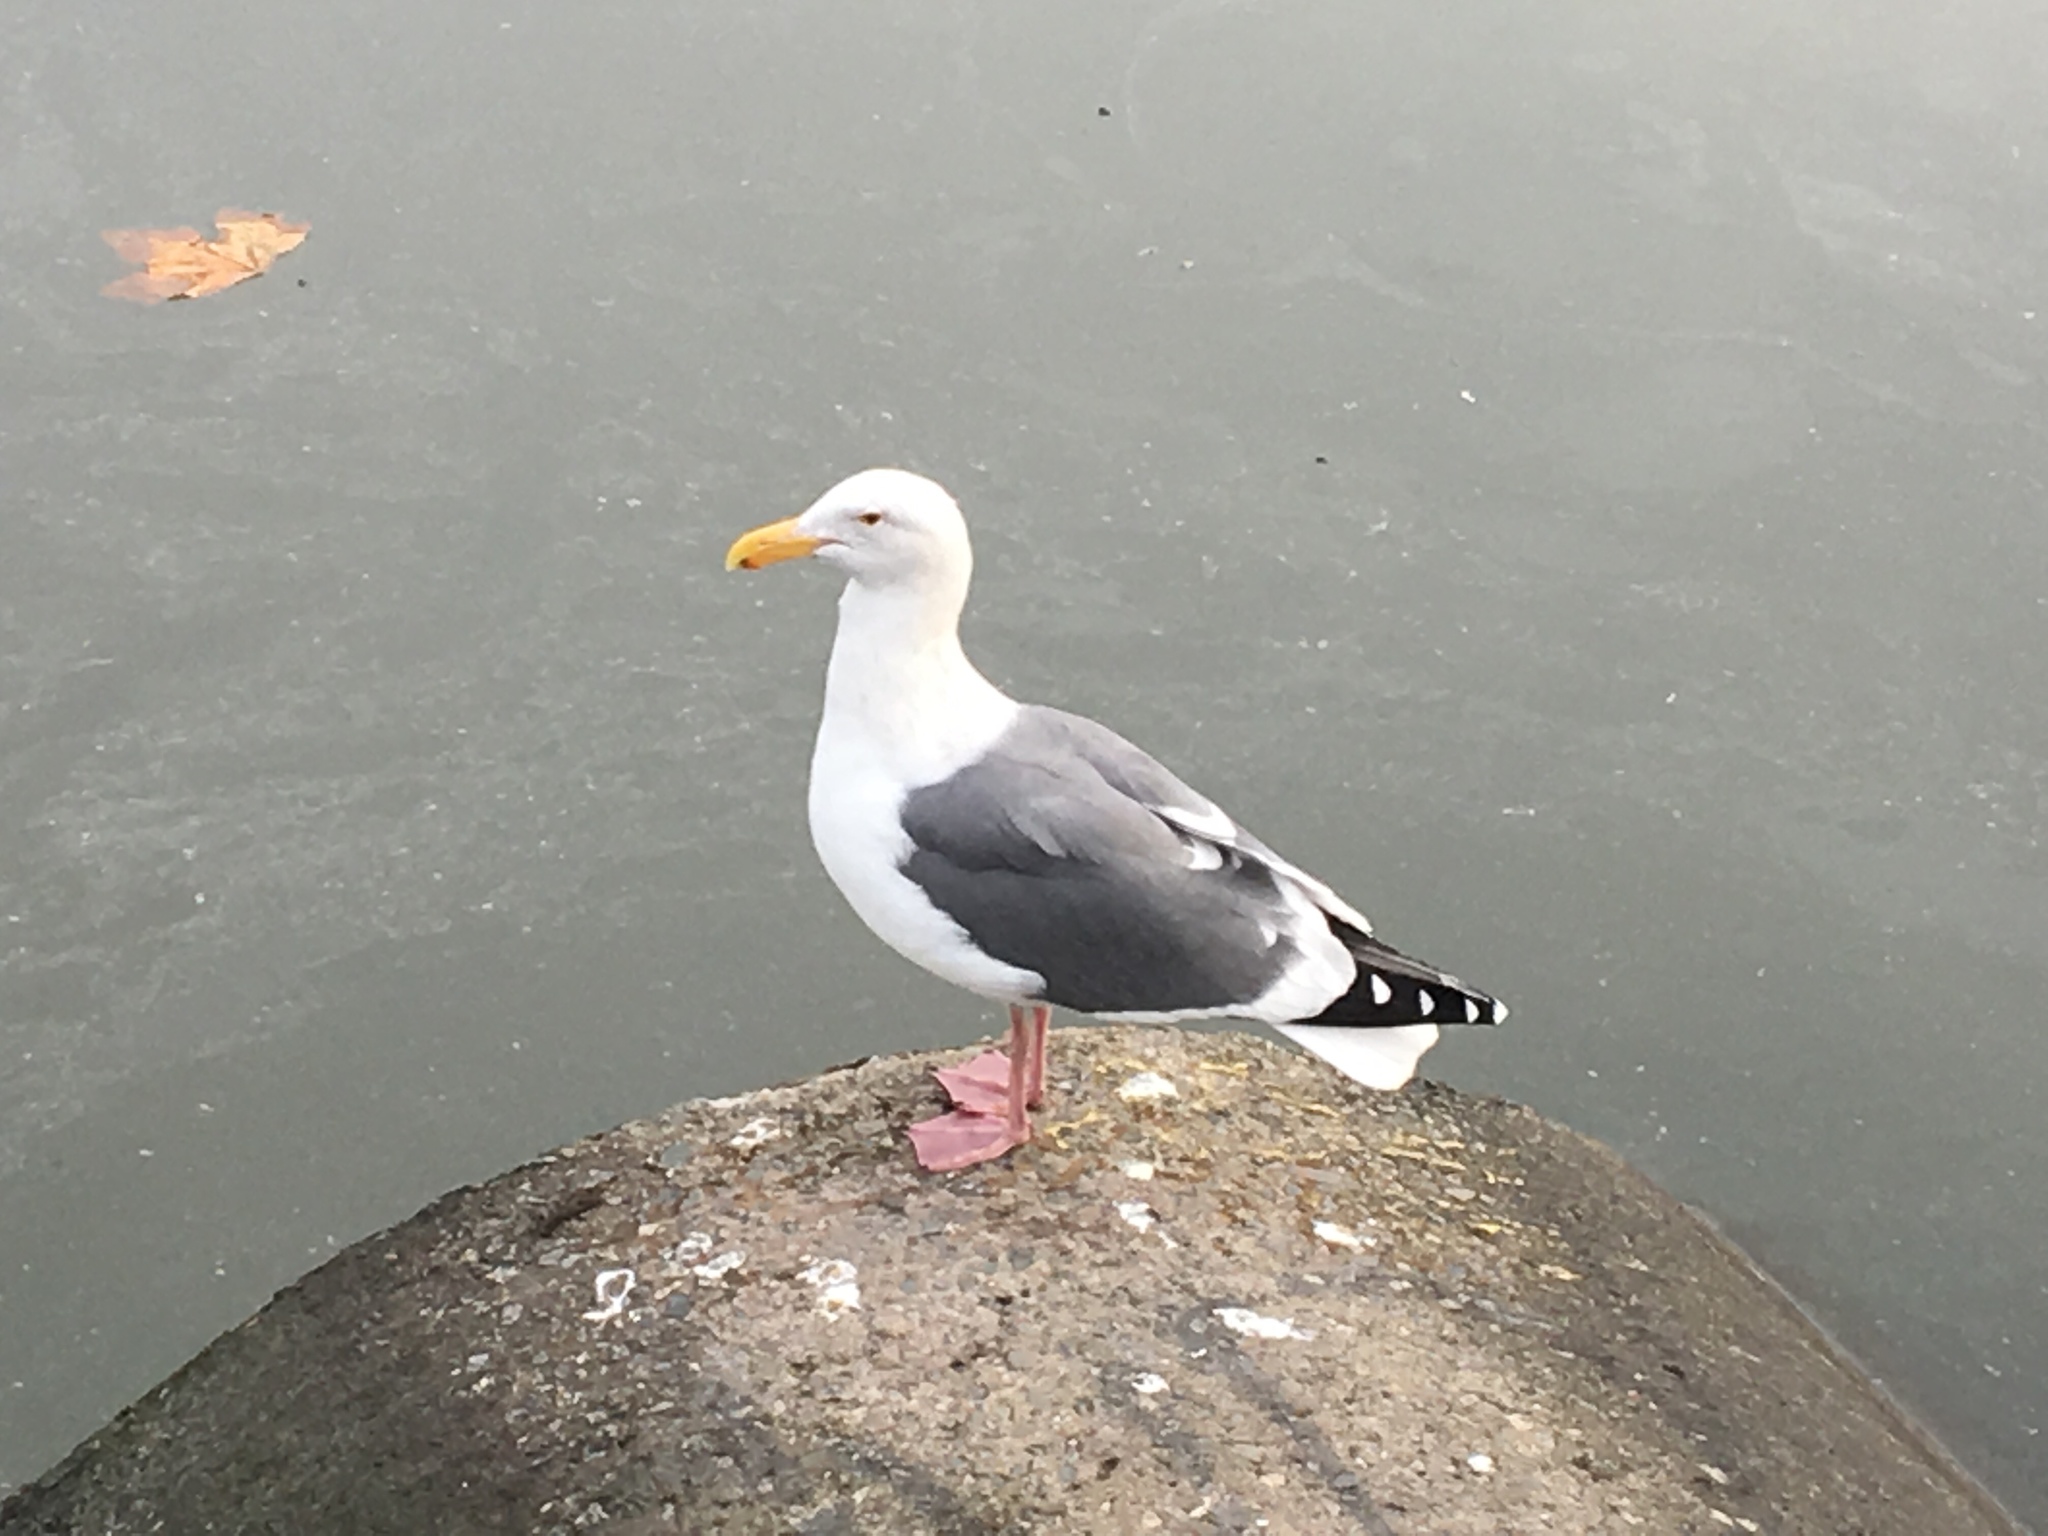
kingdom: Animalia
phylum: Chordata
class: Aves
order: Charadriiformes
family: Laridae
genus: Larus
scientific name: Larus occidentalis
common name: Western gull
